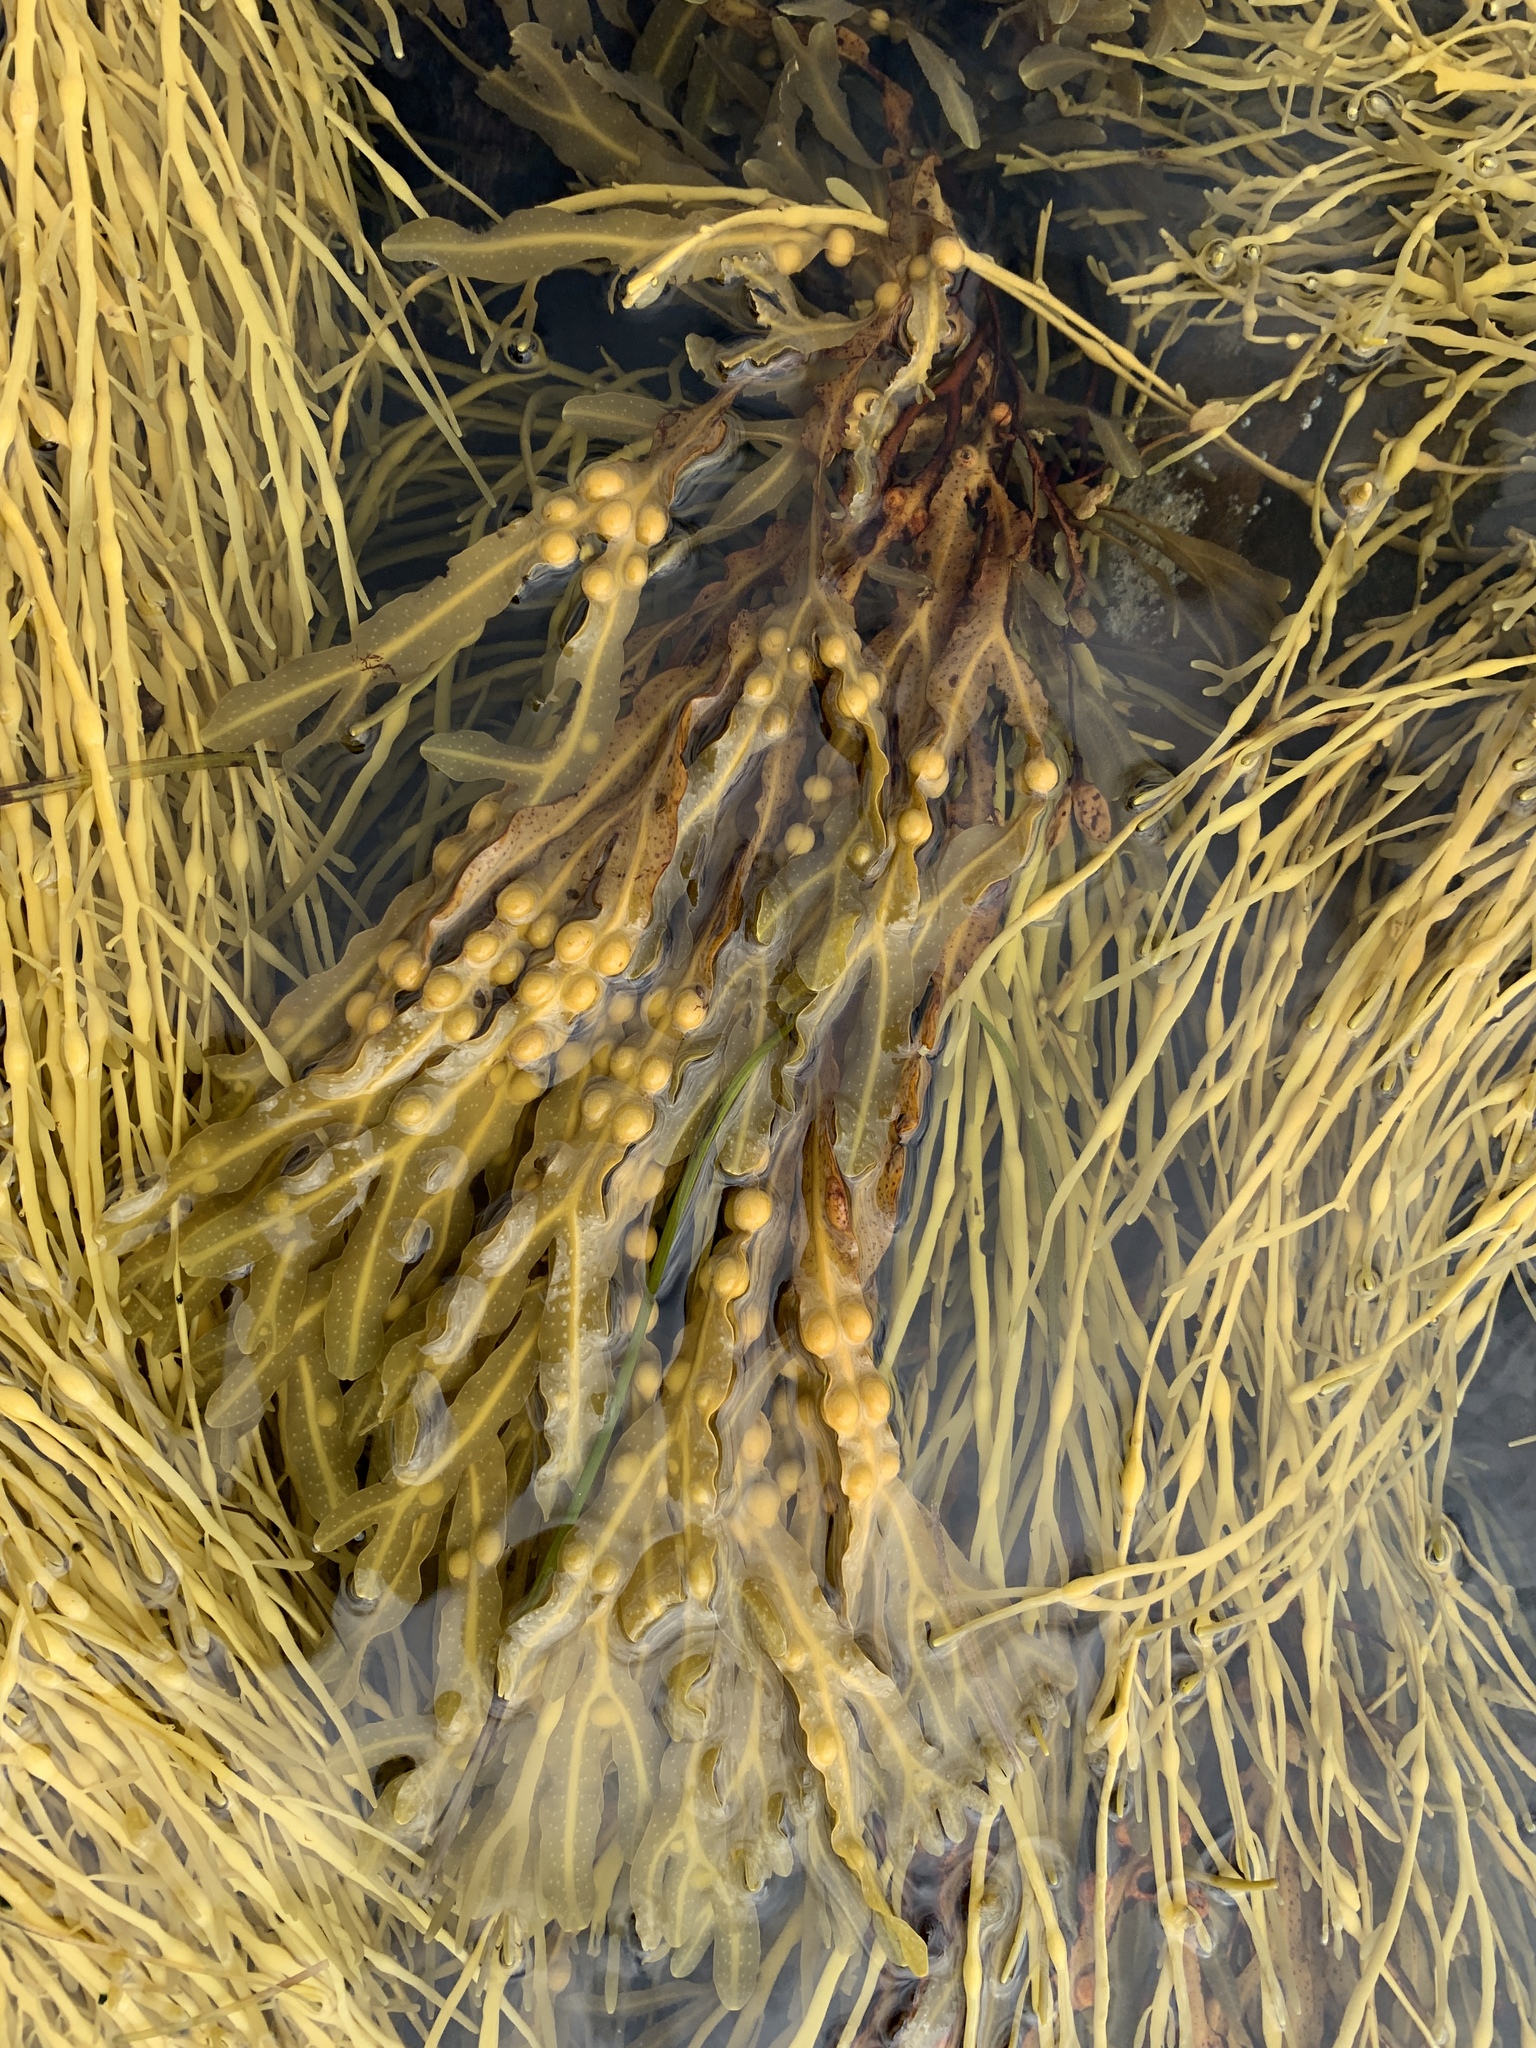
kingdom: Chromista
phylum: Ochrophyta
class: Phaeophyceae
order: Fucales
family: Fucaceae
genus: Fucus
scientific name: Fucus vesiculosus
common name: Bladder wrack
